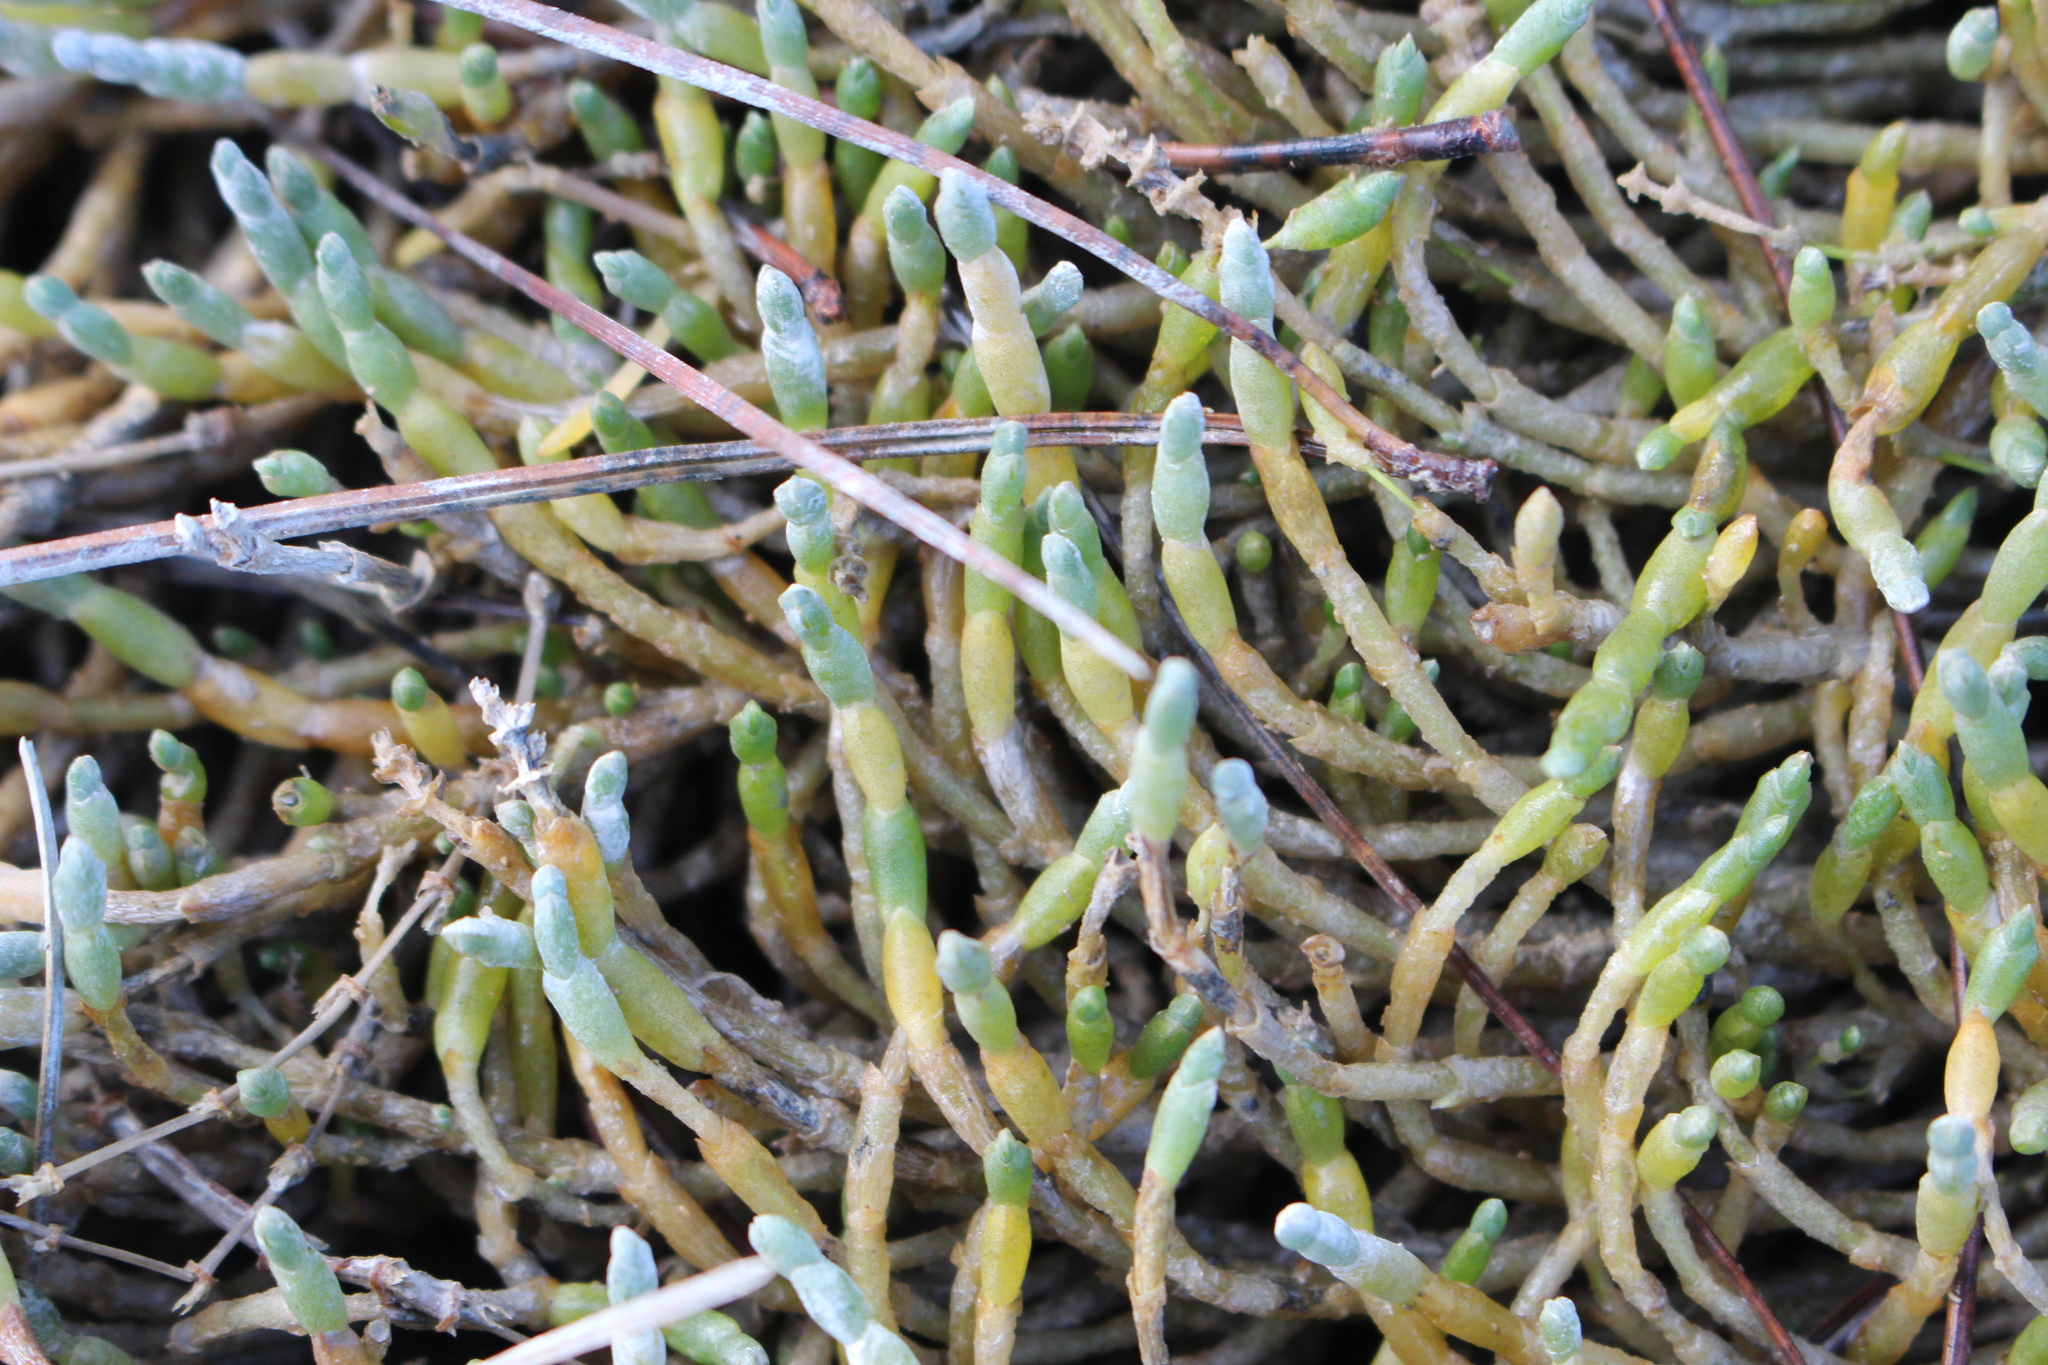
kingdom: Plantae
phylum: Tracheophyta
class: Magnoliopsida
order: Caryophyllales
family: Amaranthaceae
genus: Salicornia
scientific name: Salicornia quinqueflora
